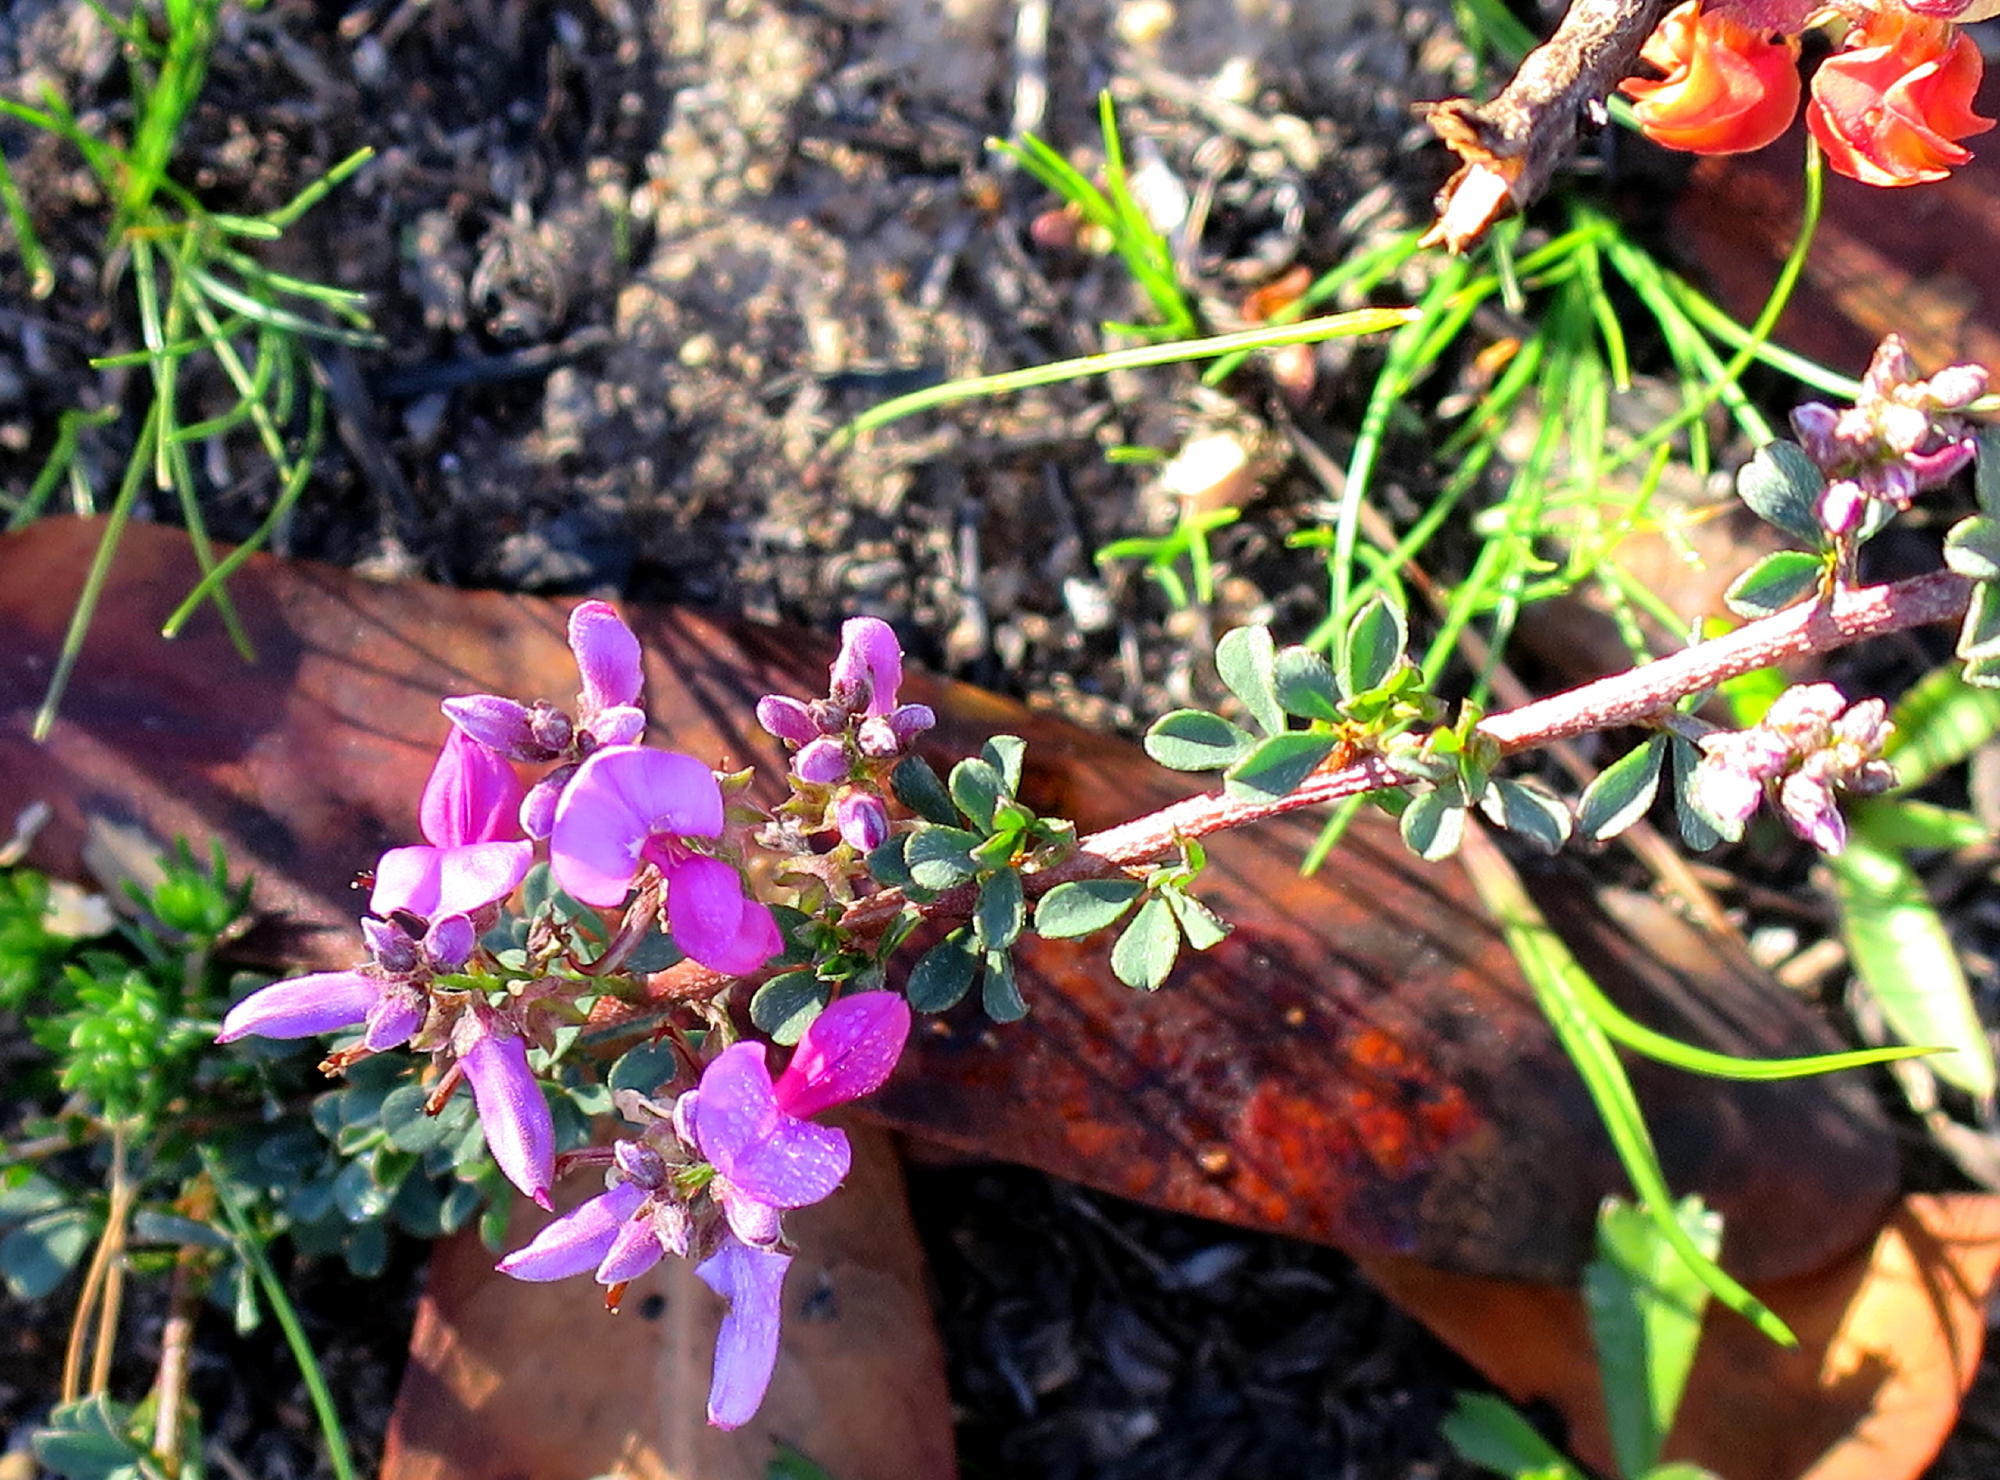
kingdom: Plantae
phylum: Tracheophyta
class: Magnoliopsida
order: Fabales
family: Fabaceae
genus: Indigofera
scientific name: Indigofera nigromontana
